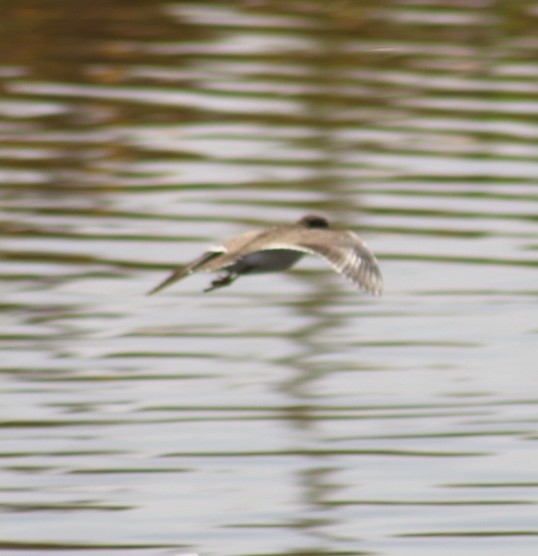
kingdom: Animalia
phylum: Chordata
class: Aves
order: Charadriiformes
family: Scolopacidae
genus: Actitis
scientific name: Actitis macularius
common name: Spotted sandpiper
